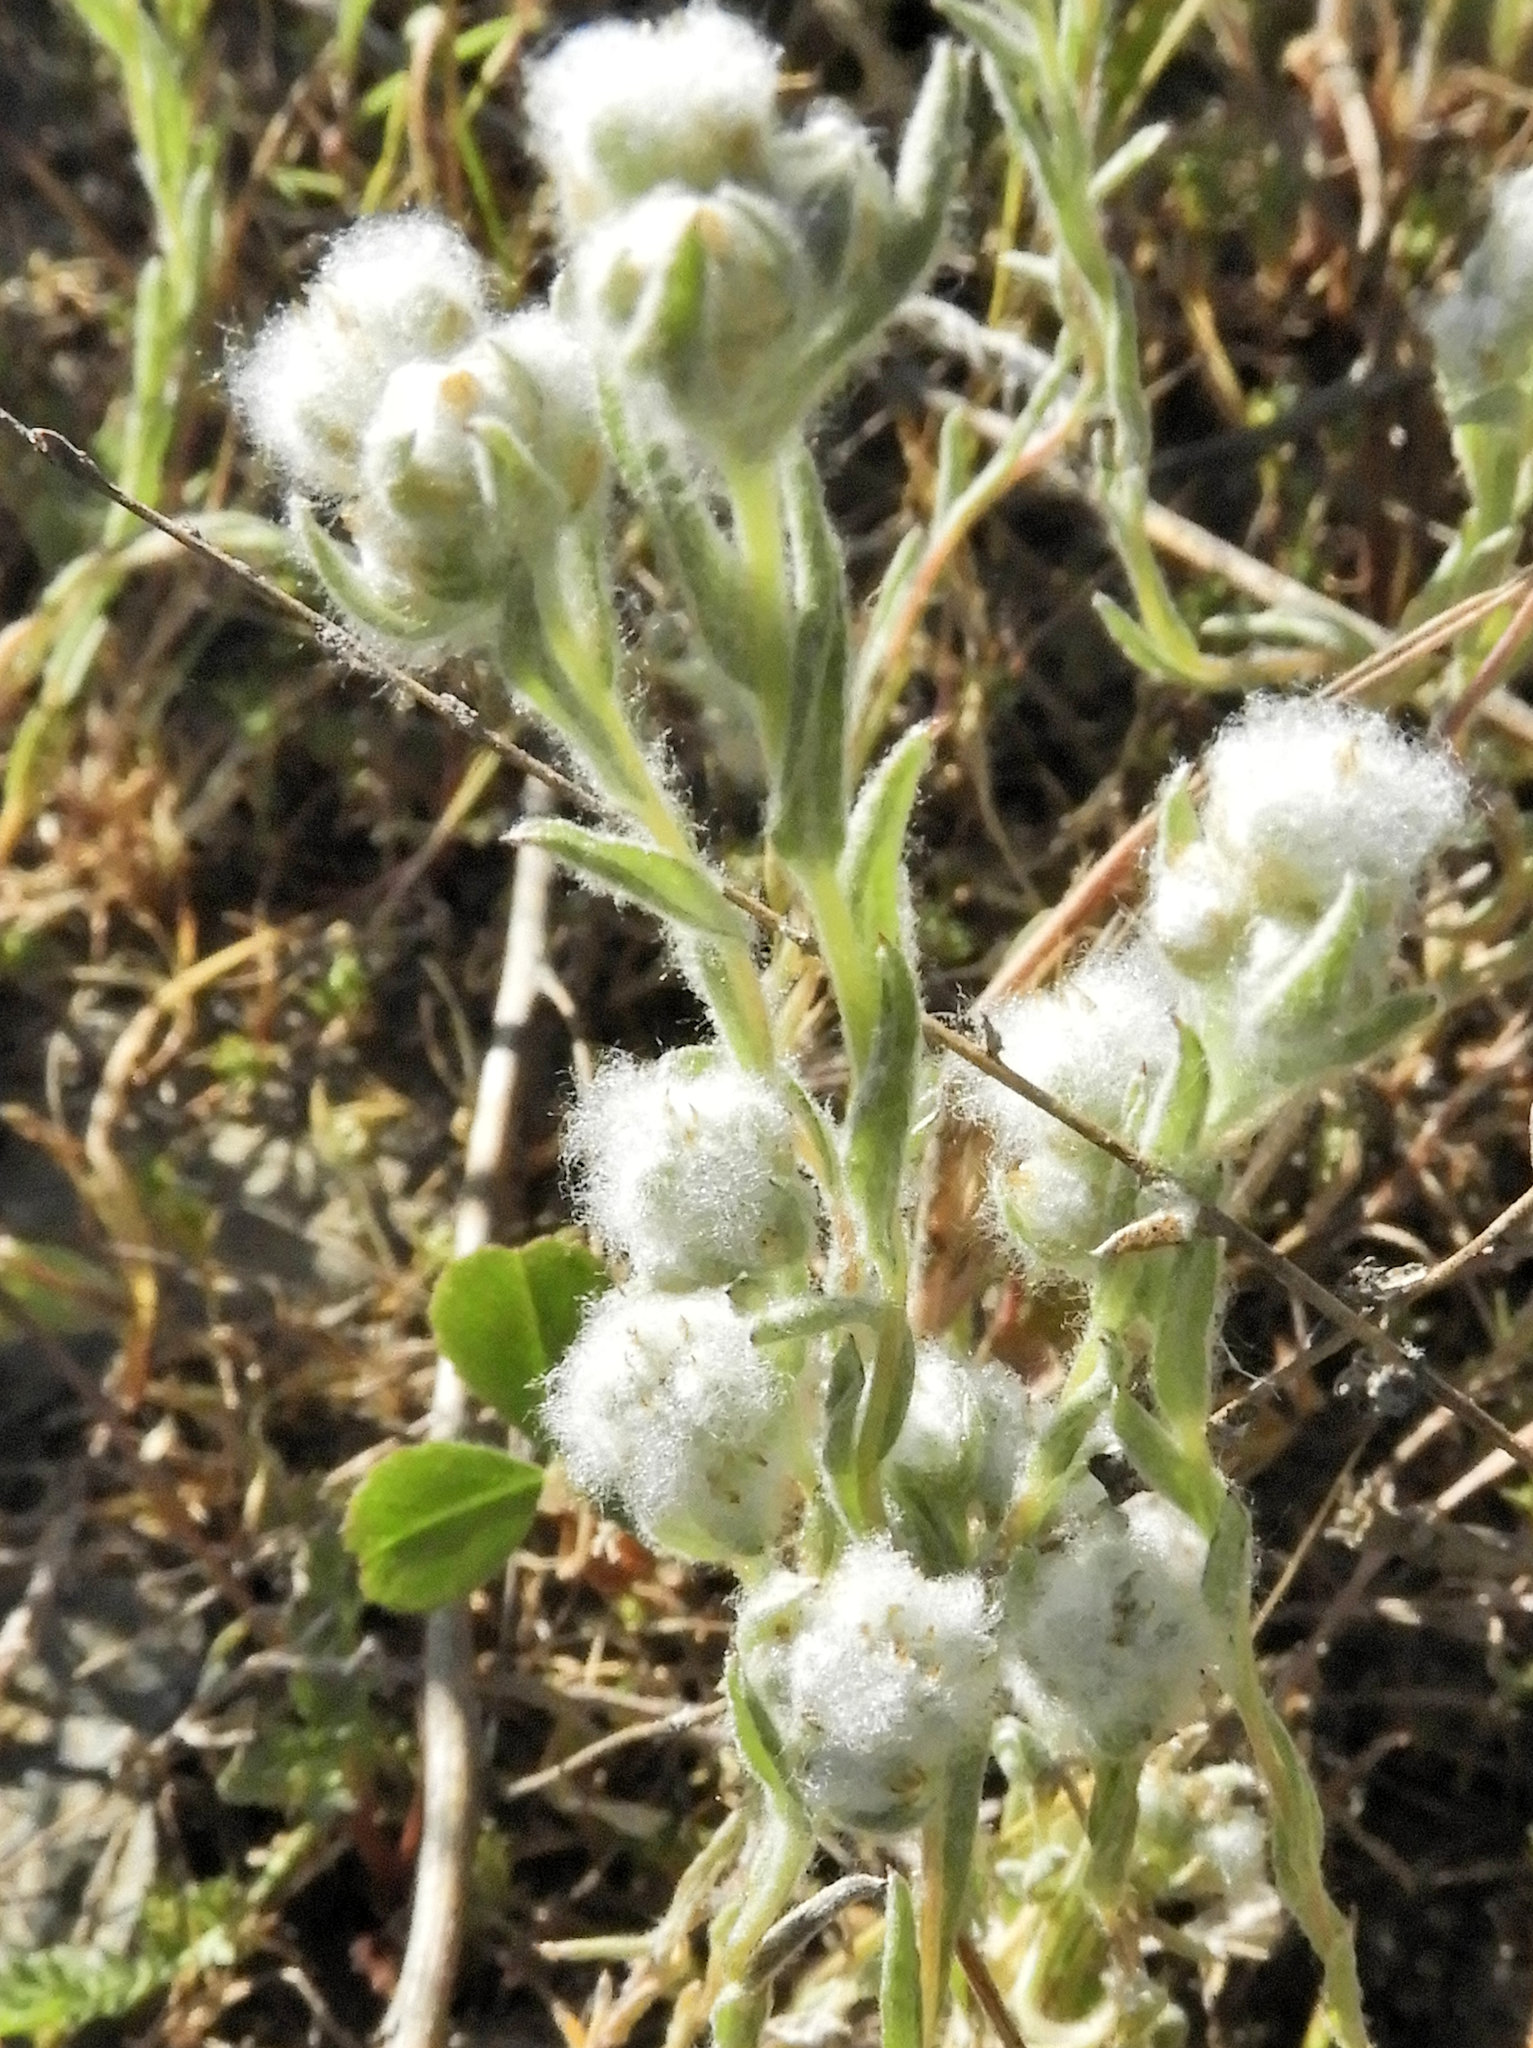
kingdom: Plantae
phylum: Tracheophyta
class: Magnoliopsida
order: Asterales
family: Asteraceae
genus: Bombycilaena
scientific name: Bombycilaena californica
